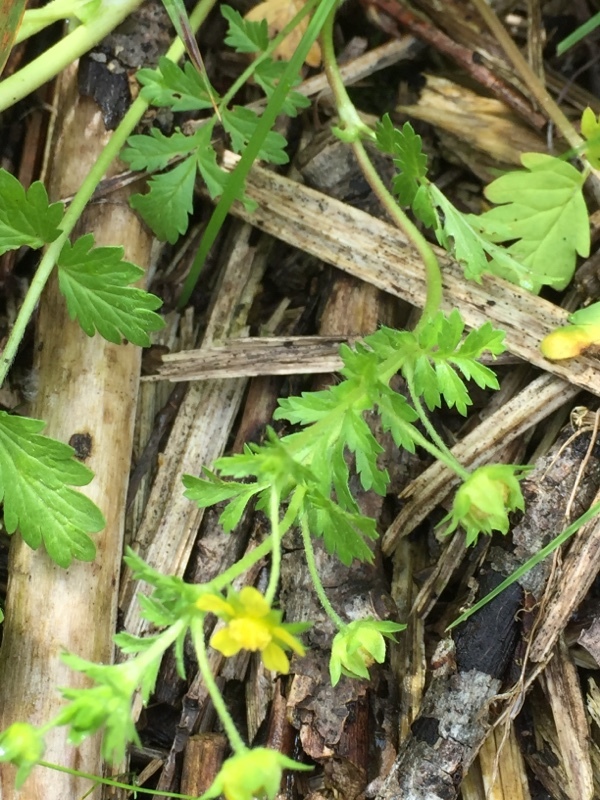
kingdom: Plantae
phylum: Tracheophyta
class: Magnoliopsida
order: Rosales
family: Rosaceae
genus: Potentilla
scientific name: Potentilla supina
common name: Prostrate cinquefoil
